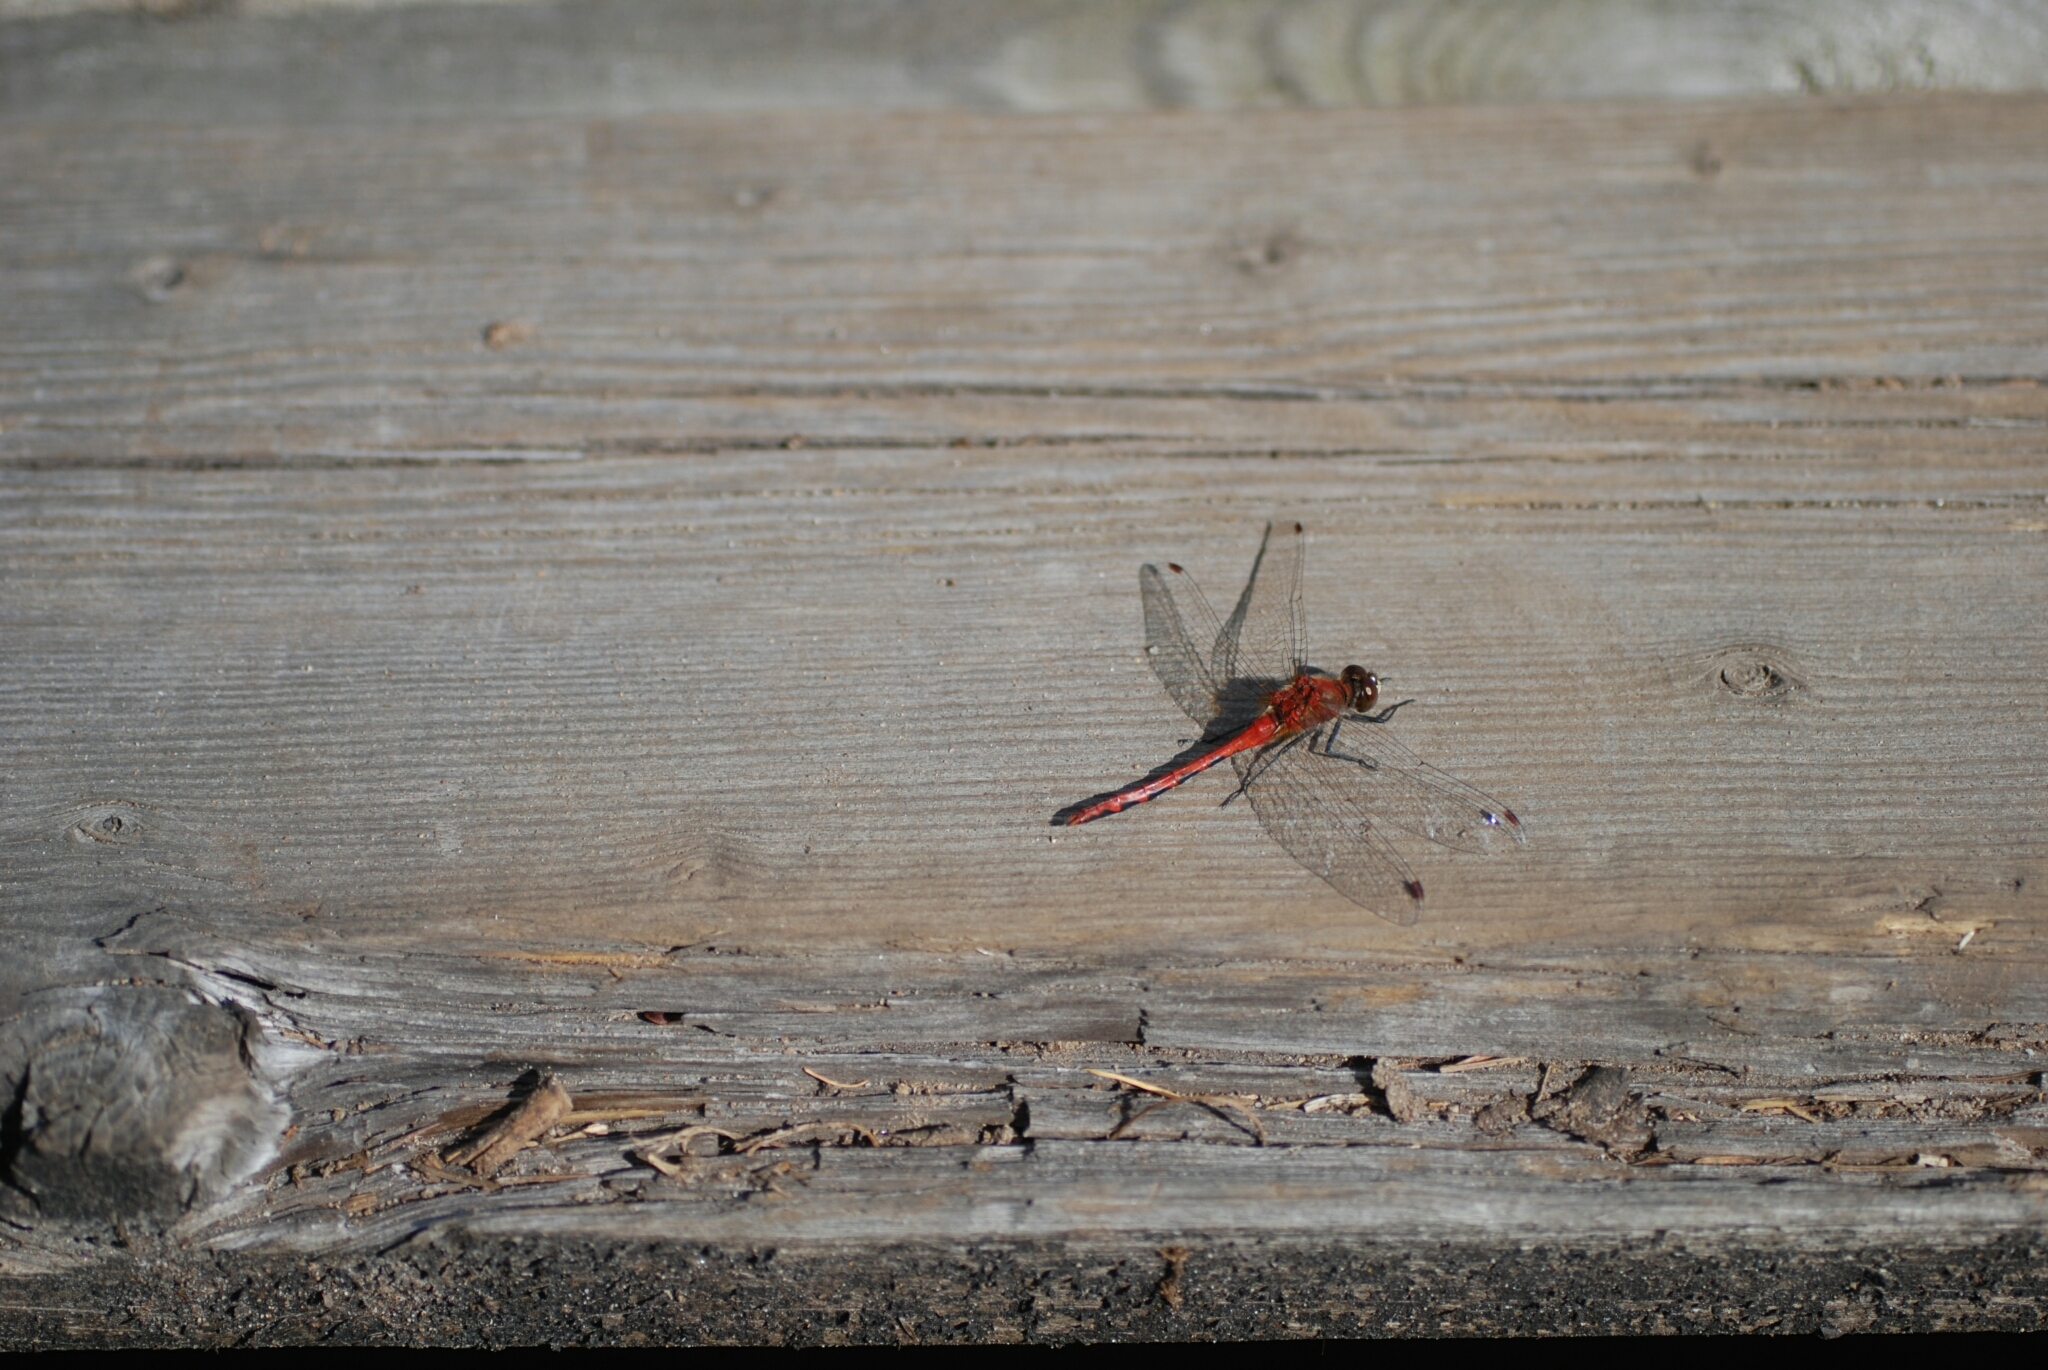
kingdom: Animalia
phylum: Arthropoda
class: Insecta
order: Odonata
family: Libellulidae
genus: Sympetrum
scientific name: Sympetrum obtrusum
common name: White-faced meadowhawk
